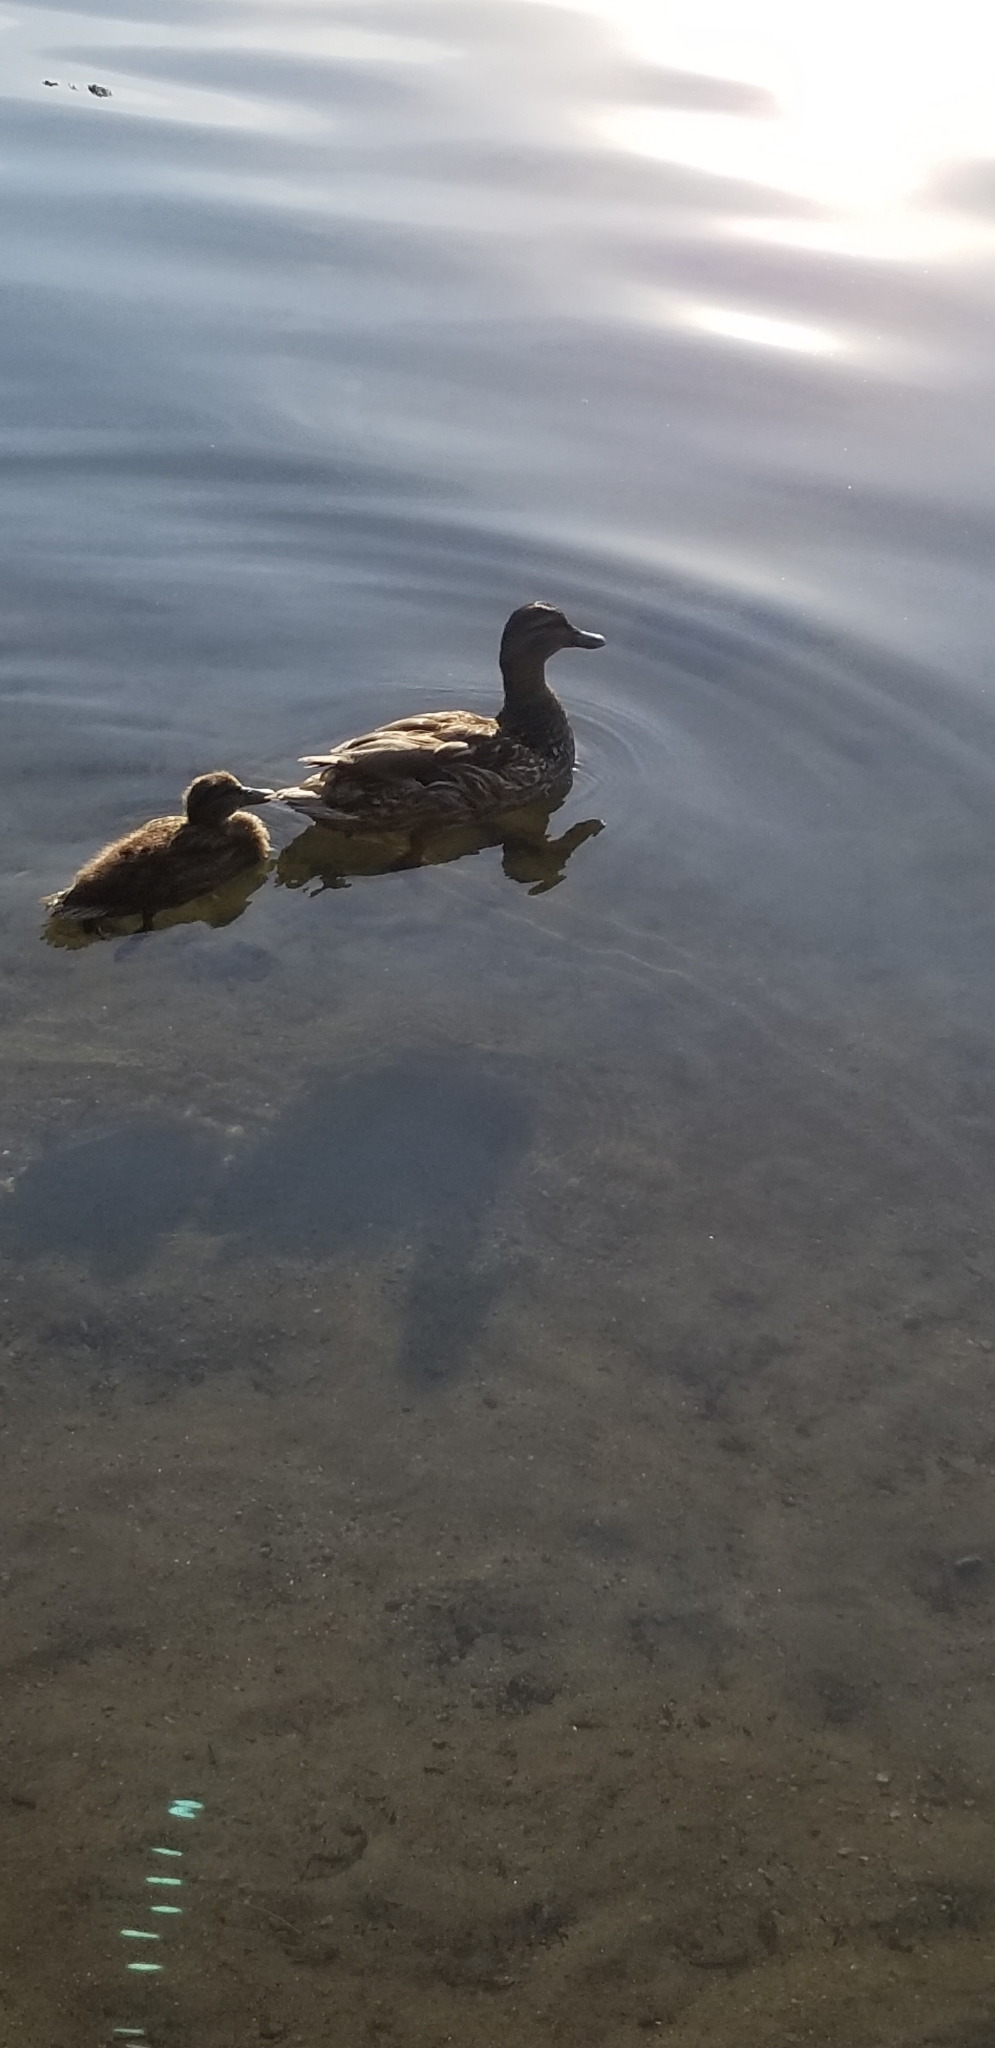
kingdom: Animalia
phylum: Chordata
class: Aves
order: Anseriformes
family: Anatidae
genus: Anas
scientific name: Anas platyrhynchos
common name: Mallard
